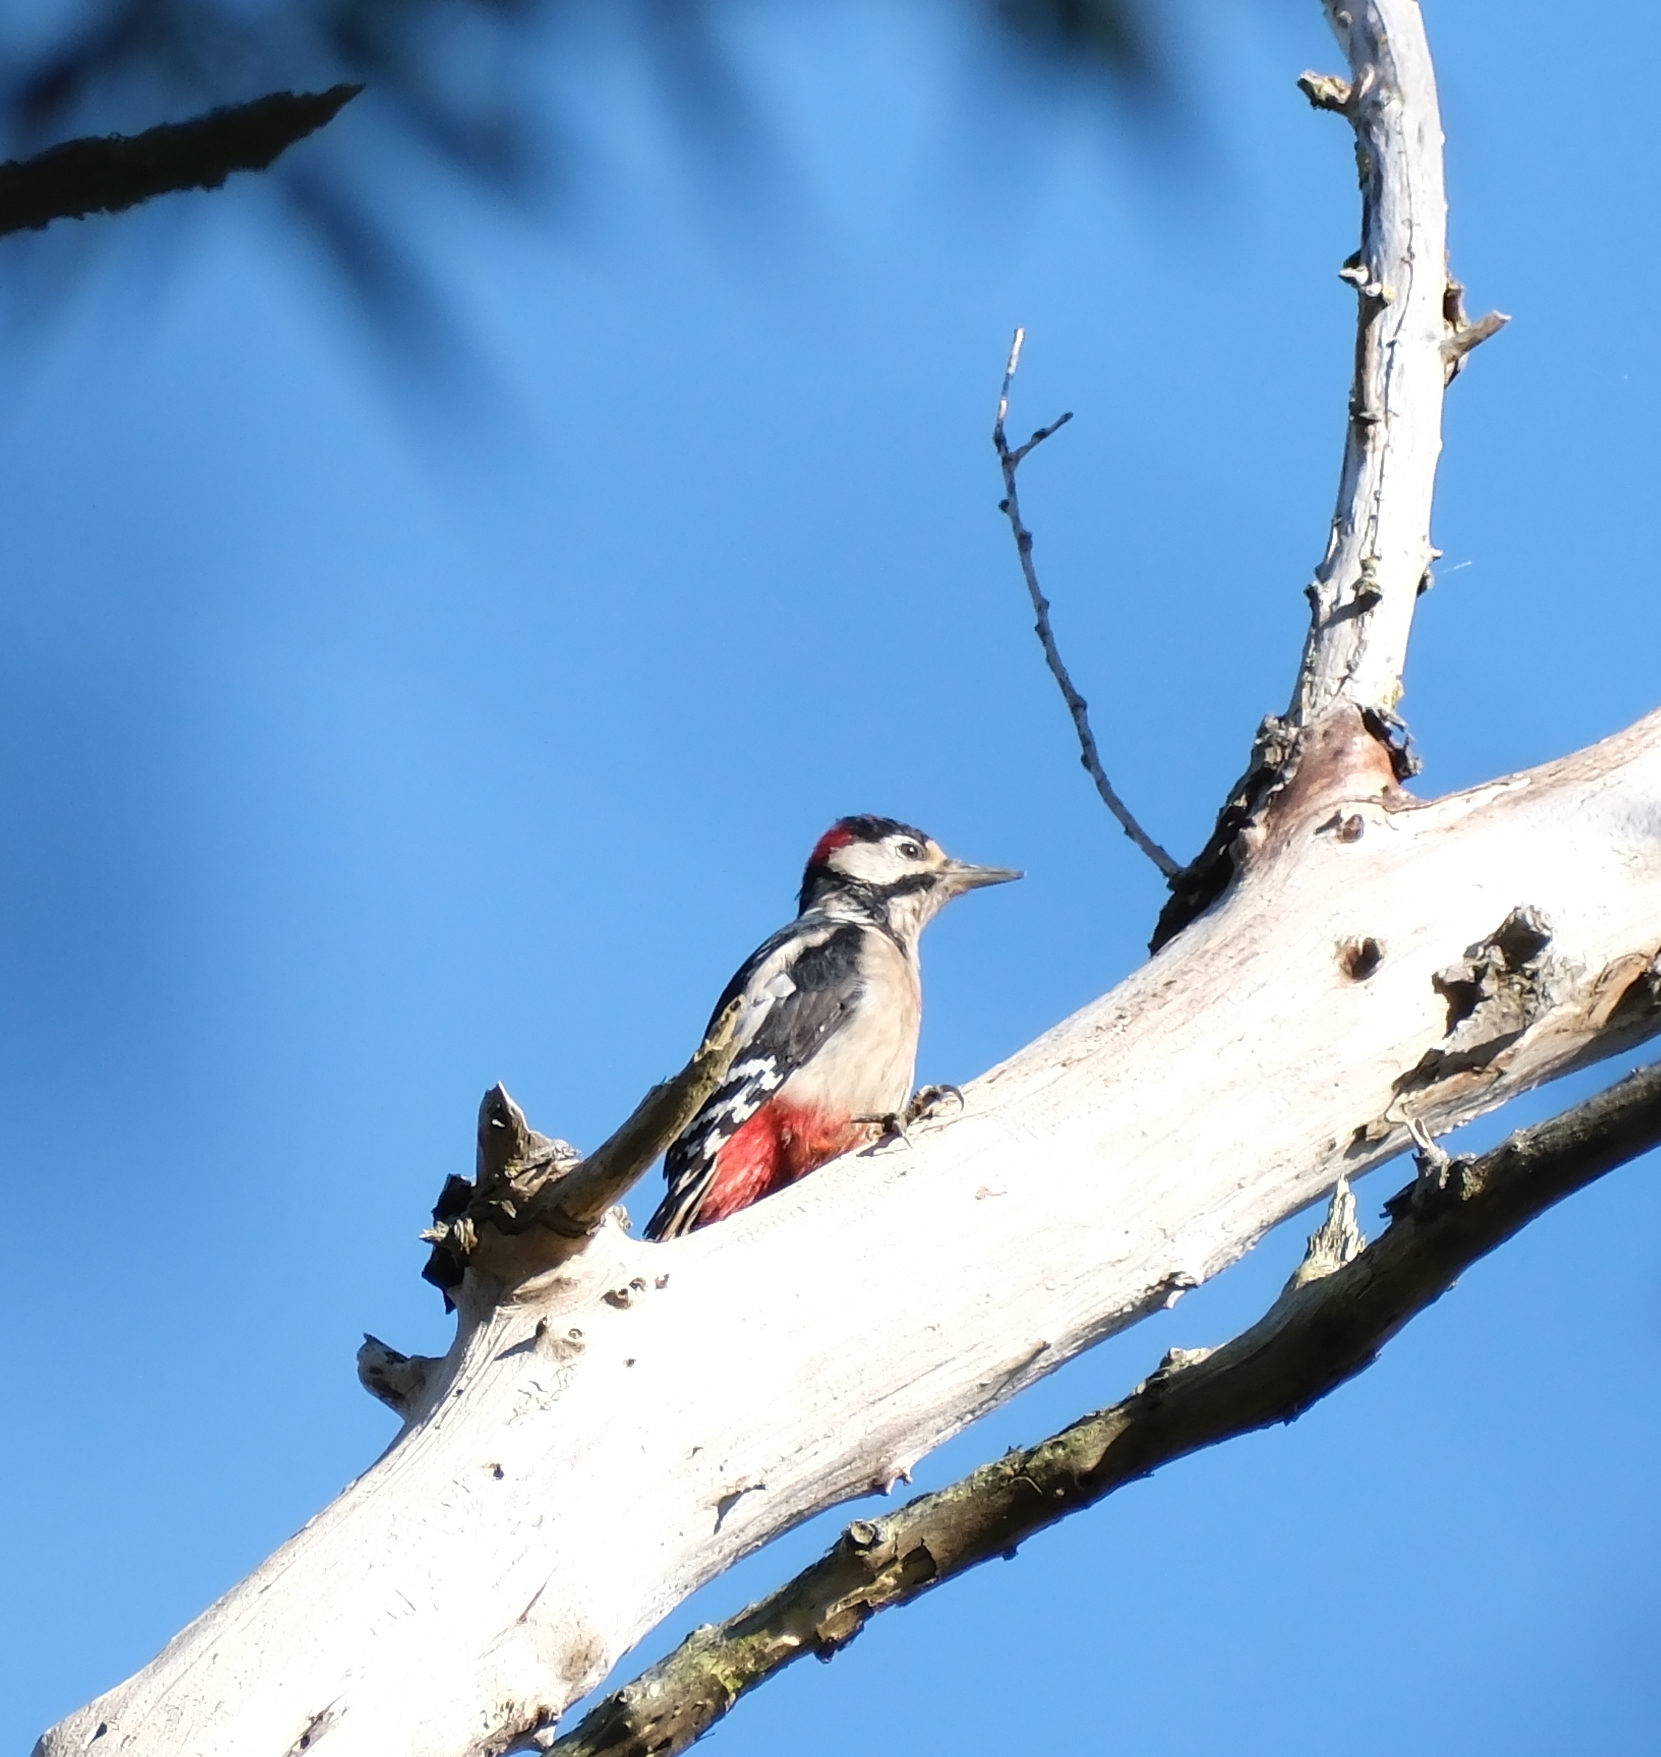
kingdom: Animalia
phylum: Chordata
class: Aves
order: Piciformes
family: Picidae
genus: Dendrocopos
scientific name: Dendrocopos major
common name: Great spotted woodpecker
